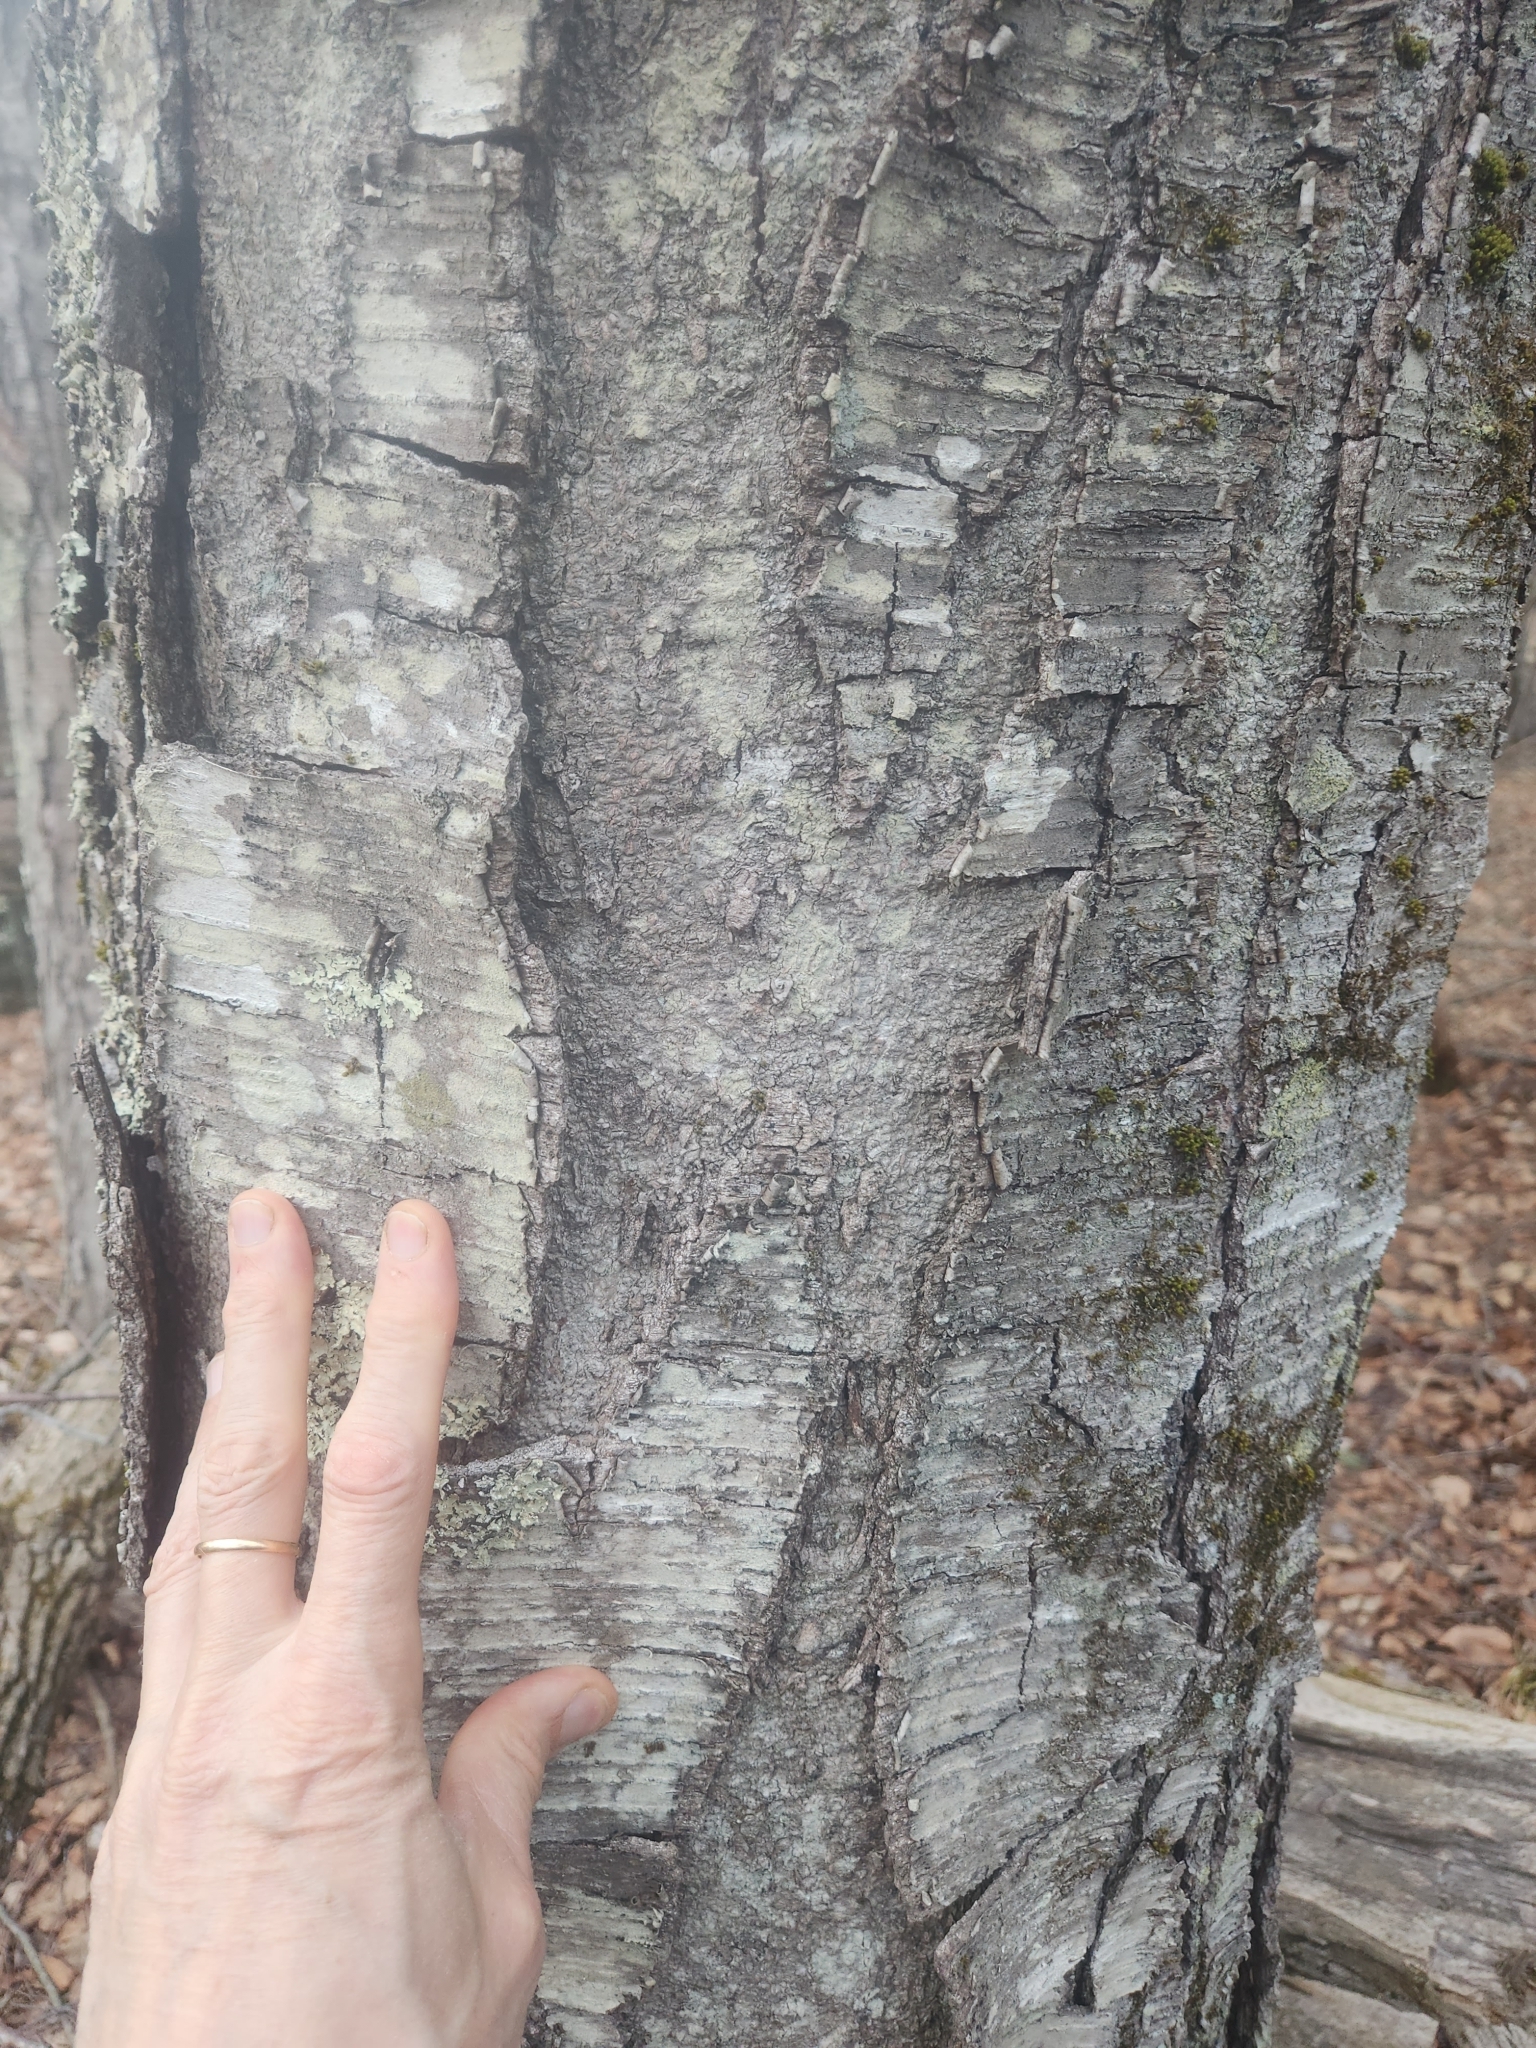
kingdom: Plantae
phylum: Tracheophyta
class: Magnoliopsida
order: Fagales
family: Betulaceae
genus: Betula
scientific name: Betula lenta
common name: Black birch
